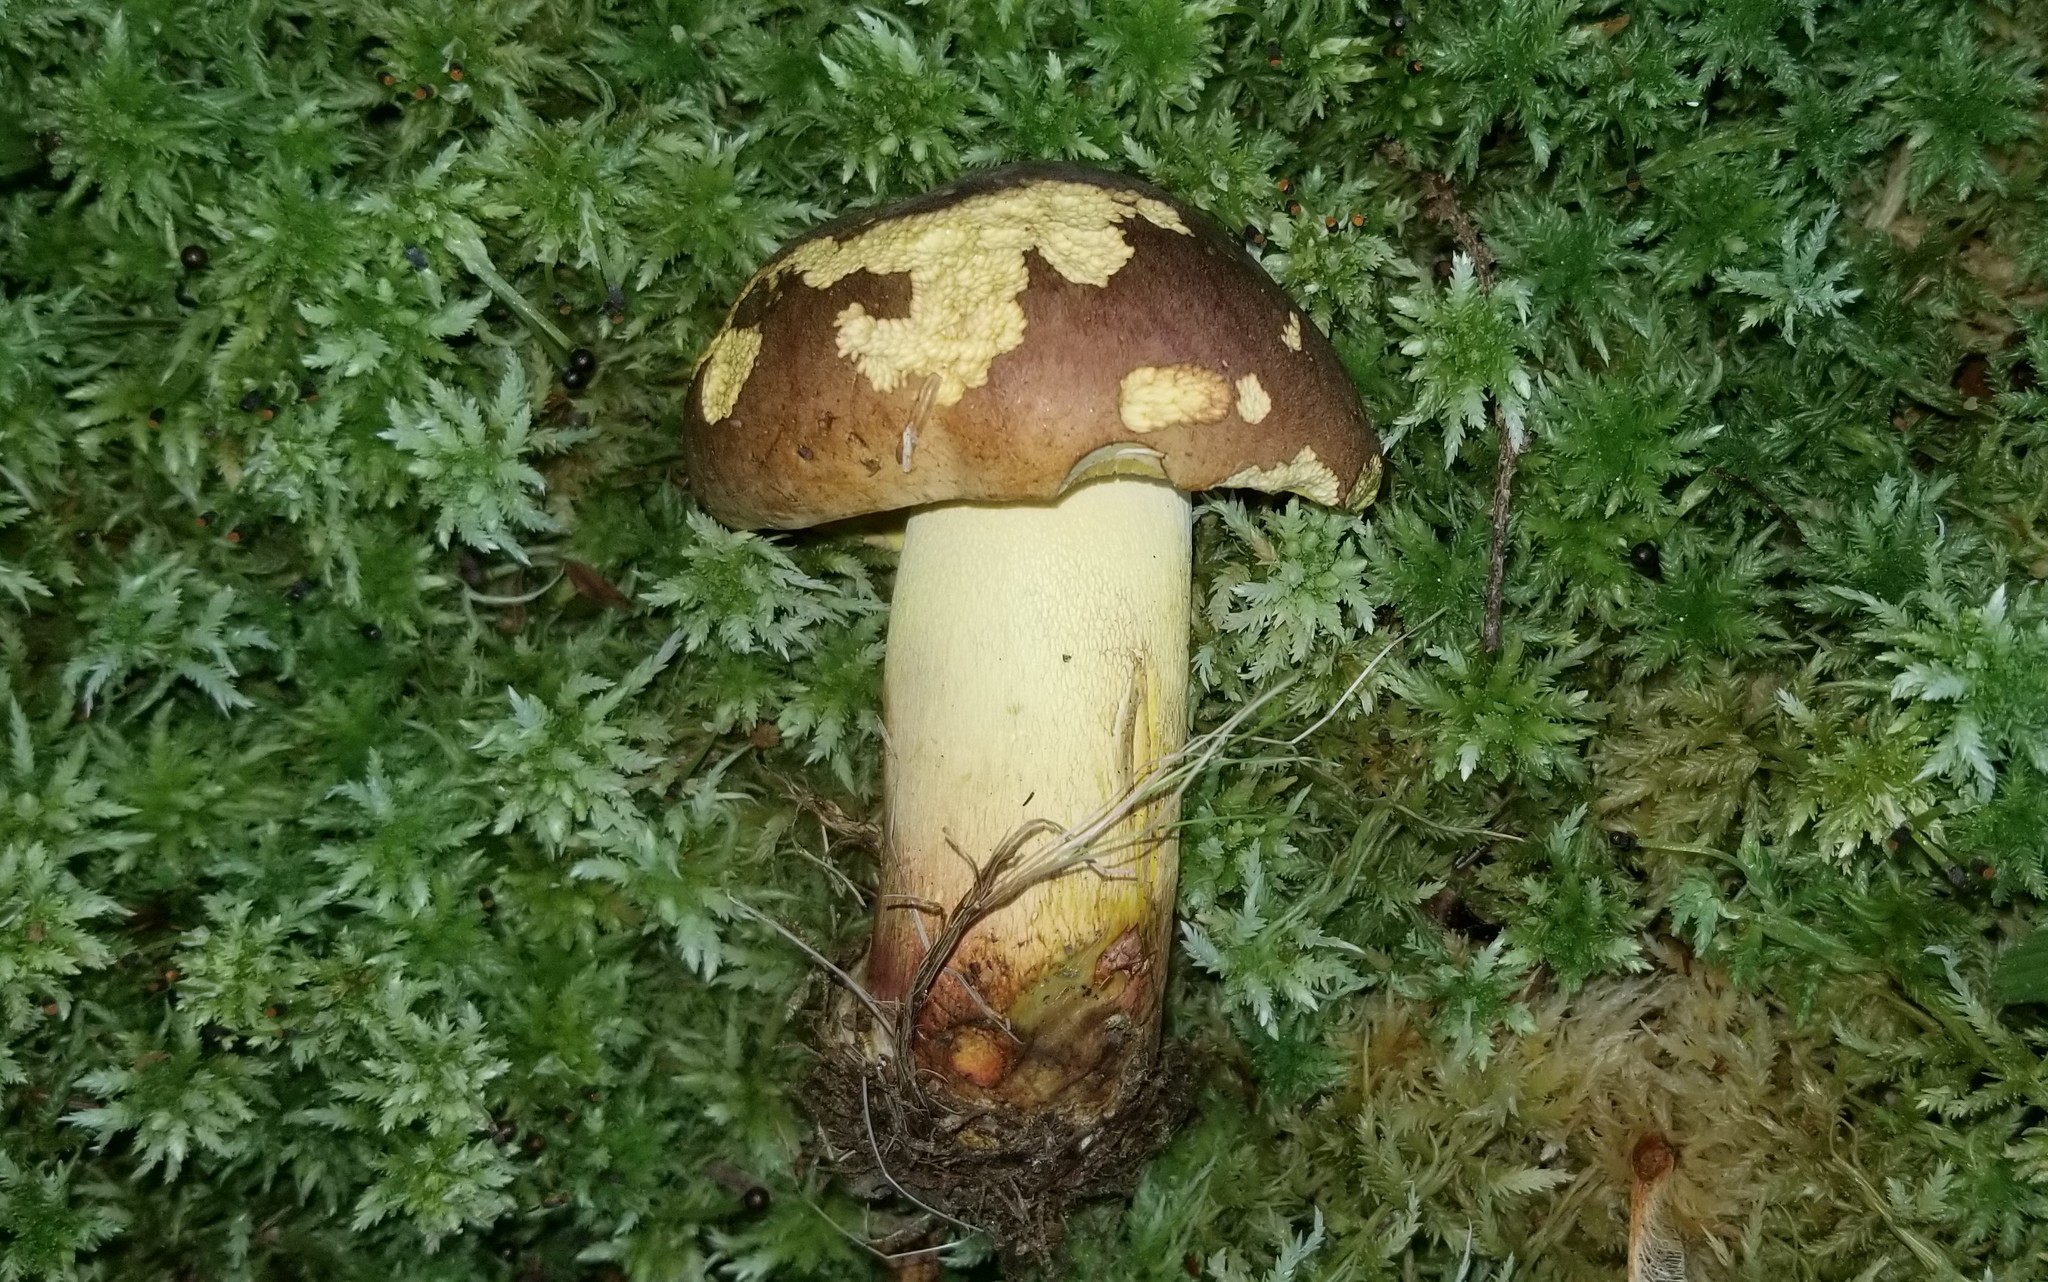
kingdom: Fungi
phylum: Basidiomycota
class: Agaricomycetes
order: Boletales
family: Boletaceae
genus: Butyriboletus
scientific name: Butyriboletus brunneus
